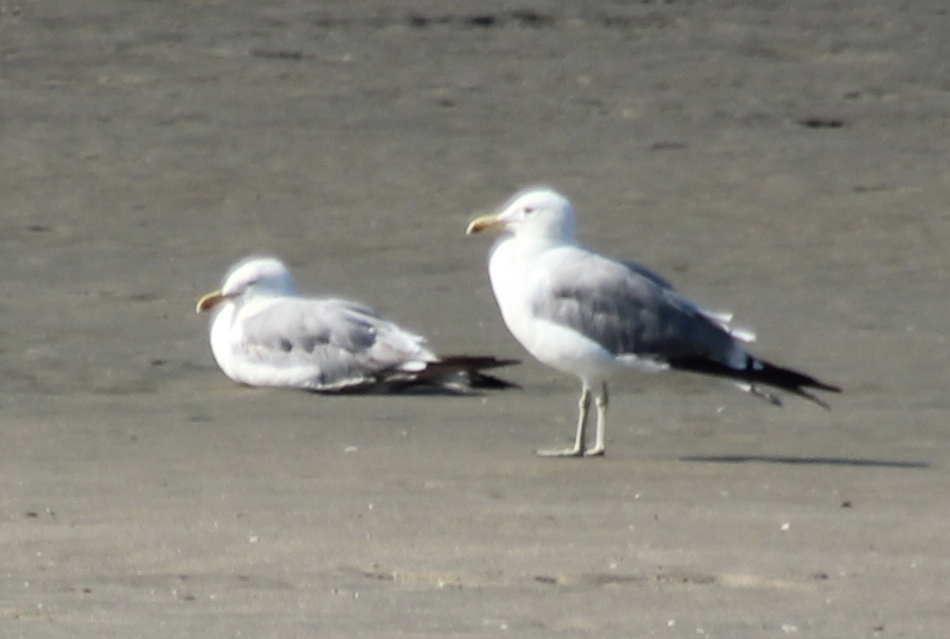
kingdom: Animalia
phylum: Chordata
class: Aves
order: Charadriiformes
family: Laridae
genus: Larus
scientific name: Larus californicus
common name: California gull
